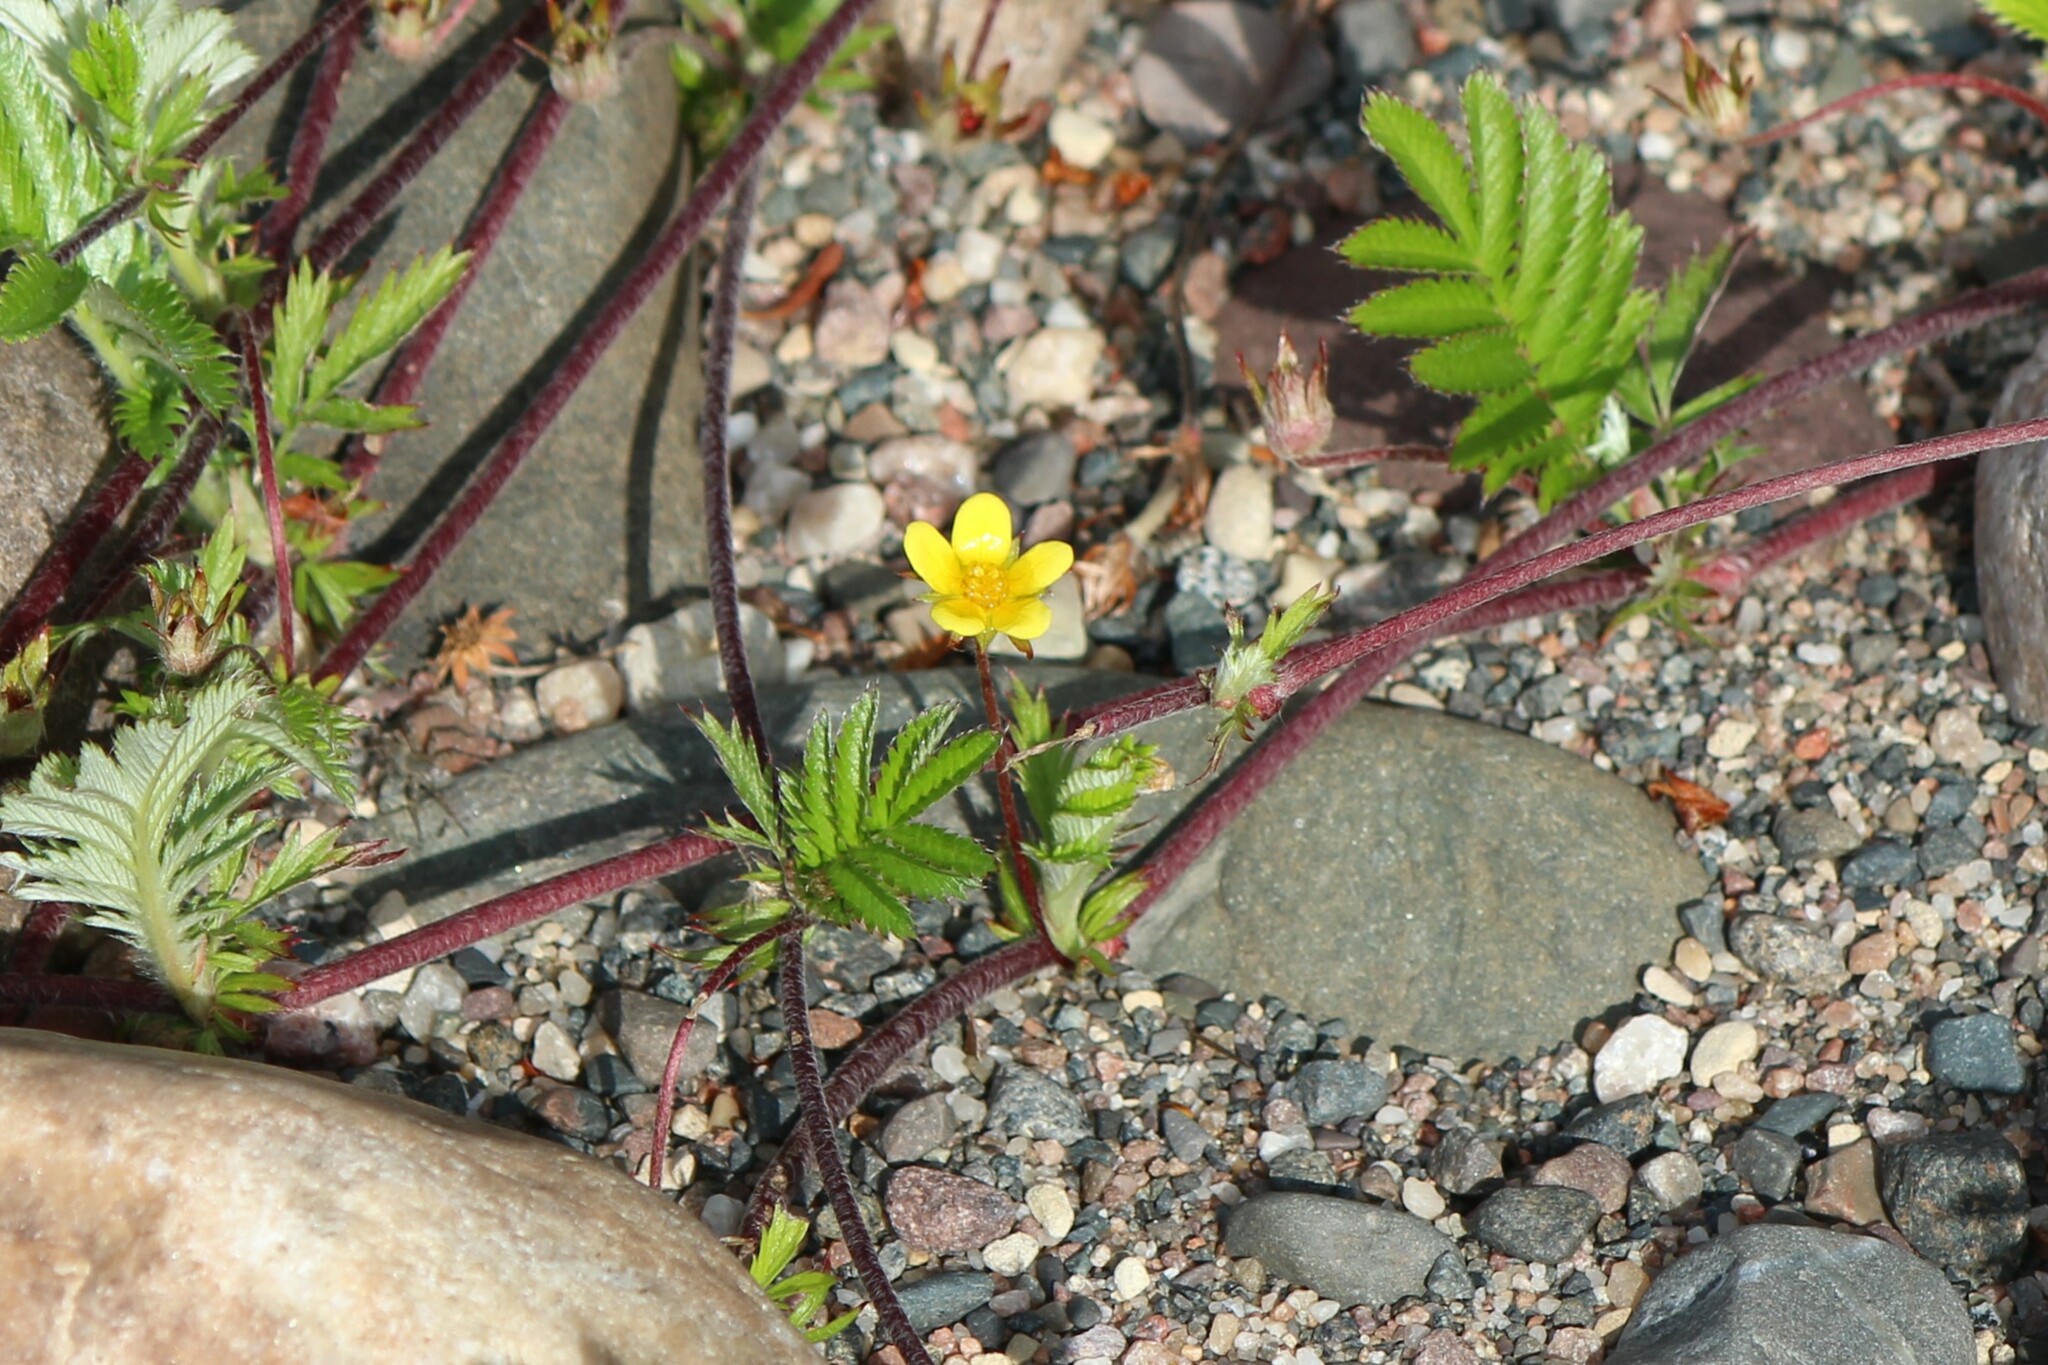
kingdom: Plantae
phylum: Tracheophyta
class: Magnoliopsida
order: Rosales
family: Rosaceae
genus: Argentina
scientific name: Argentina anserina
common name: Common silverweed
